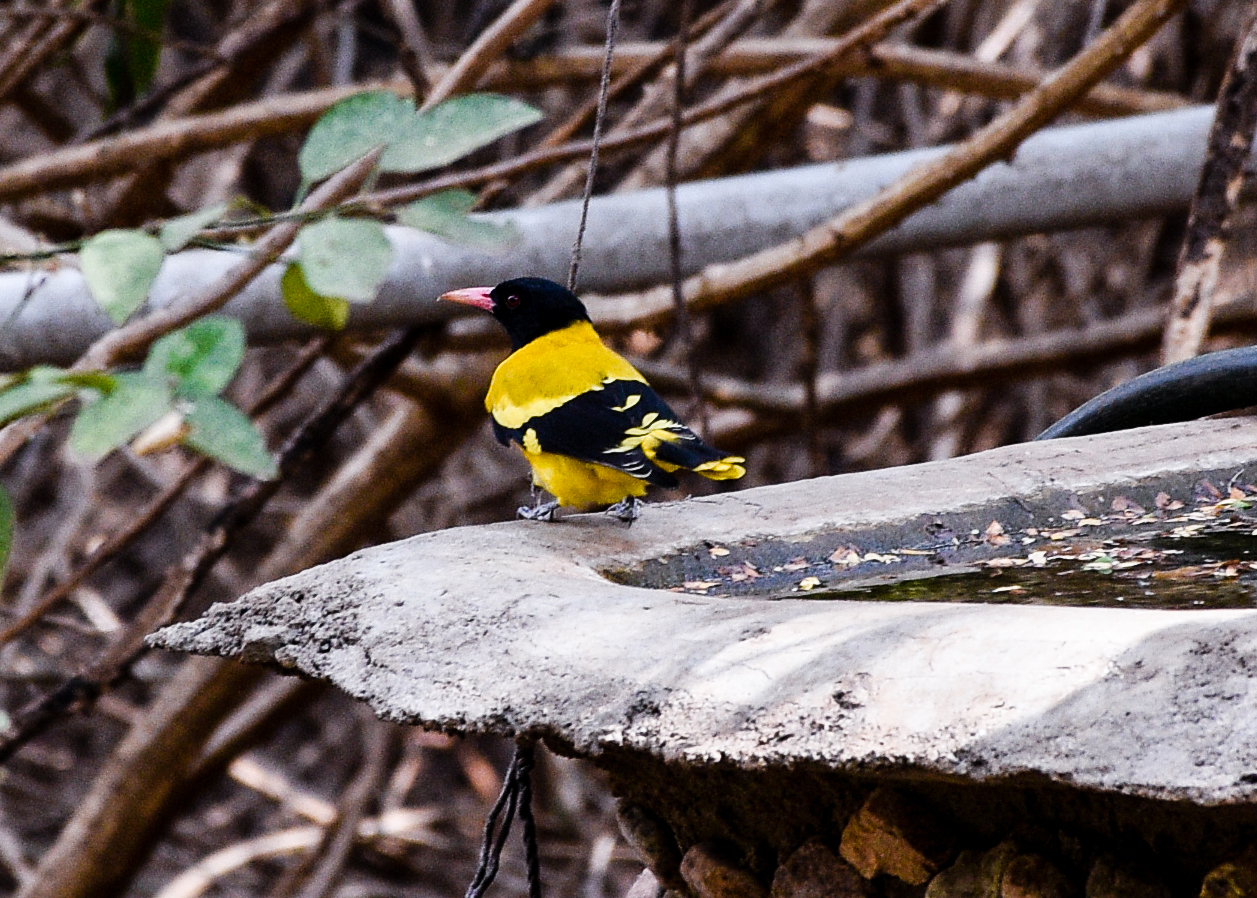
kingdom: Animalia
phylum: Chordata
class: Aves
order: Passeriformes
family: Oriolidae
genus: Oriolus
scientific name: Oriolus xanthornus
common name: Black-hooded oriole
